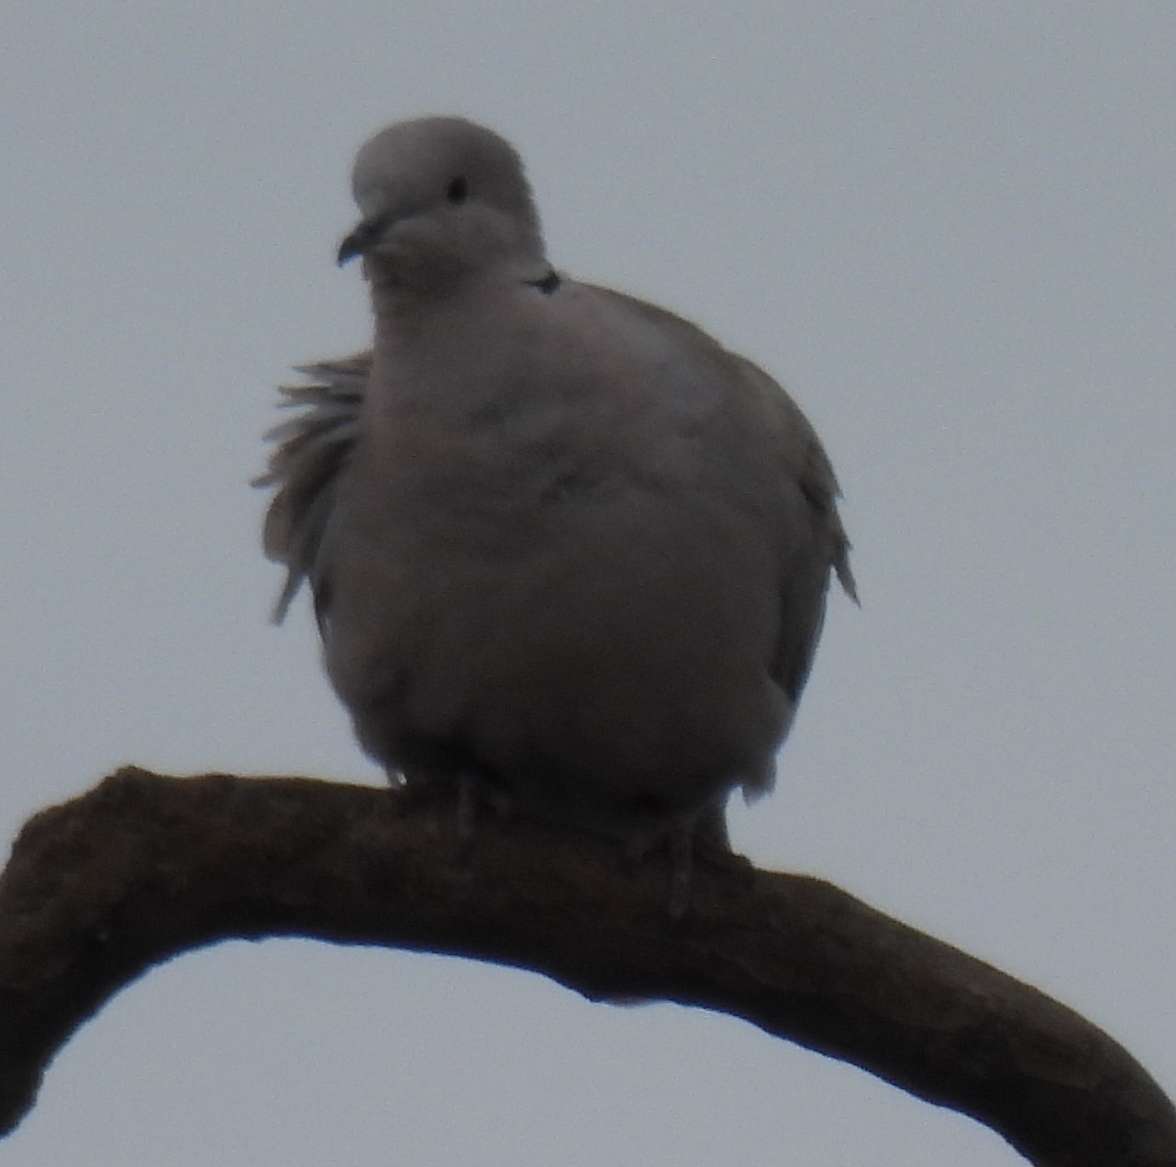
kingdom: Animalia
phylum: Chordata
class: Aves
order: Columbiformes
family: Columbidae
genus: Streptopelia
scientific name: Streptopelia decaocto
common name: Eurasian collared dove
